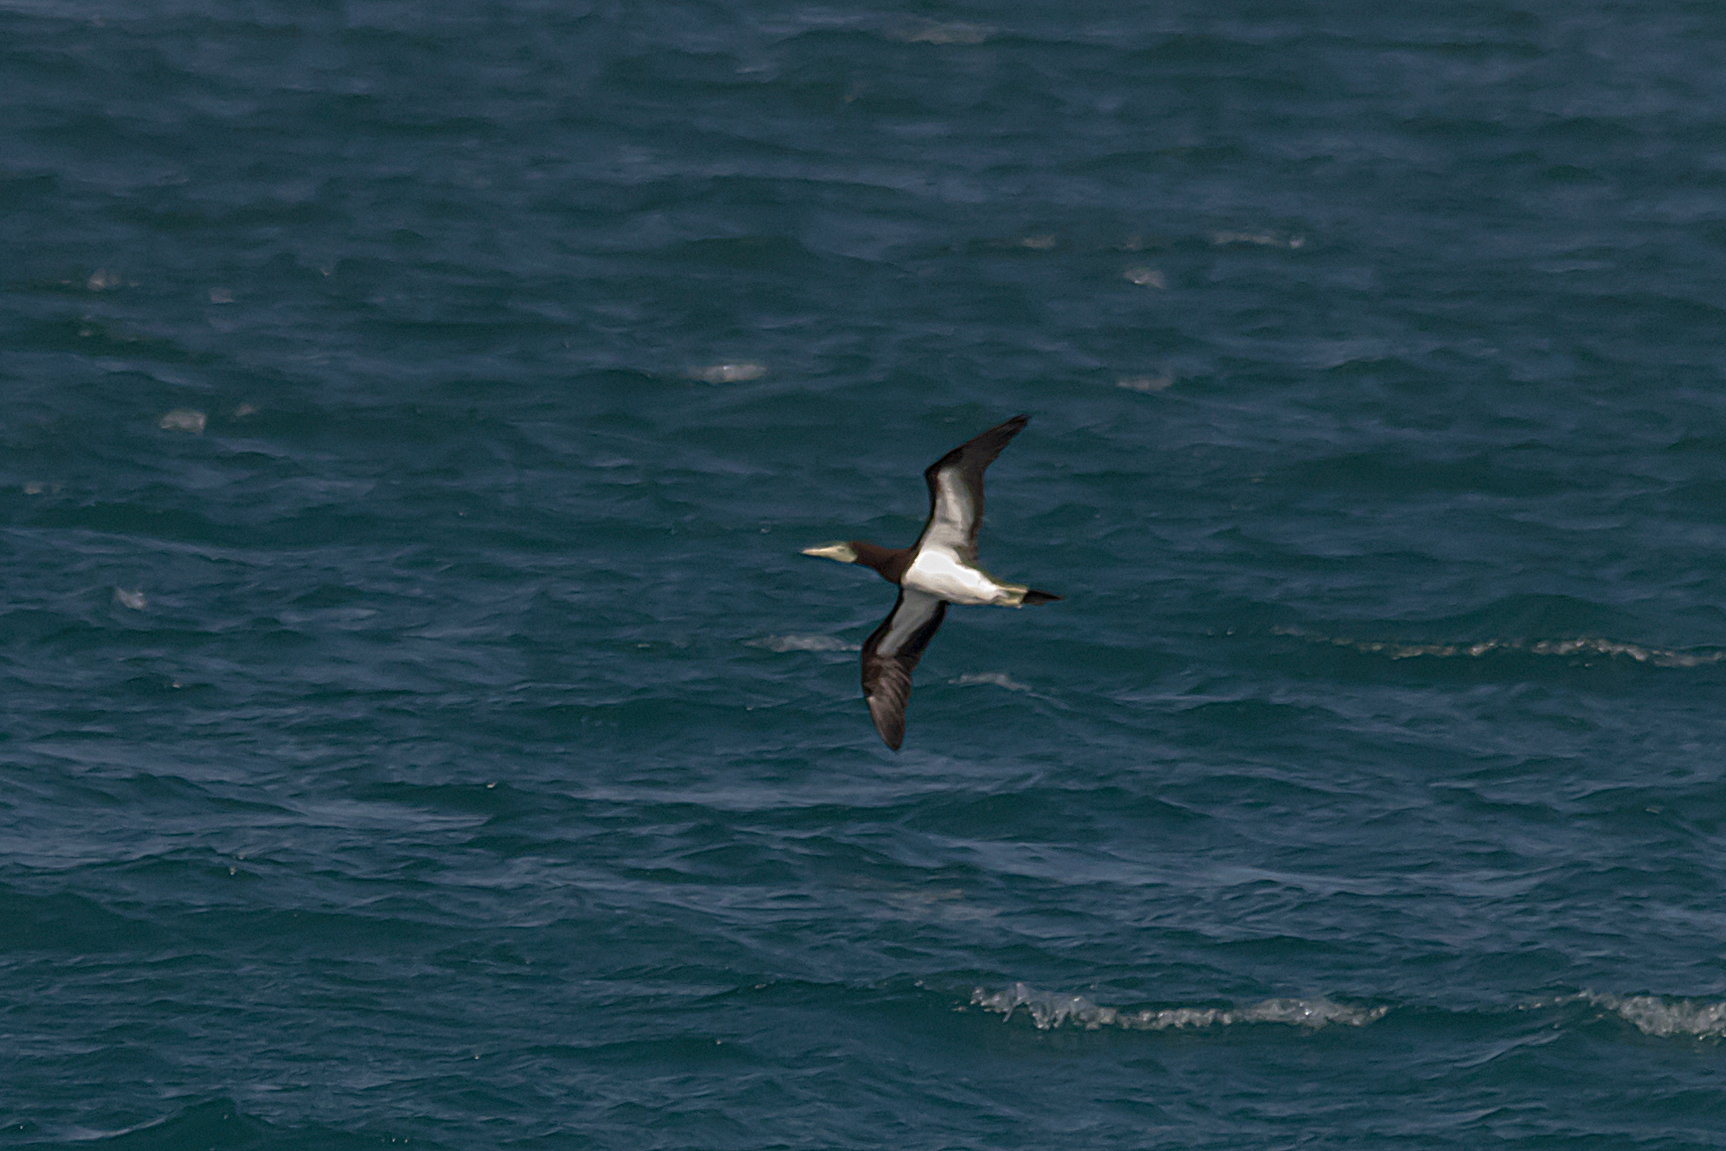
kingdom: Animalia
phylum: Chordata
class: Aves
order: Suliformes
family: Sulidae
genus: Sula
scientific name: Sula leucogaster
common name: Brown booby
